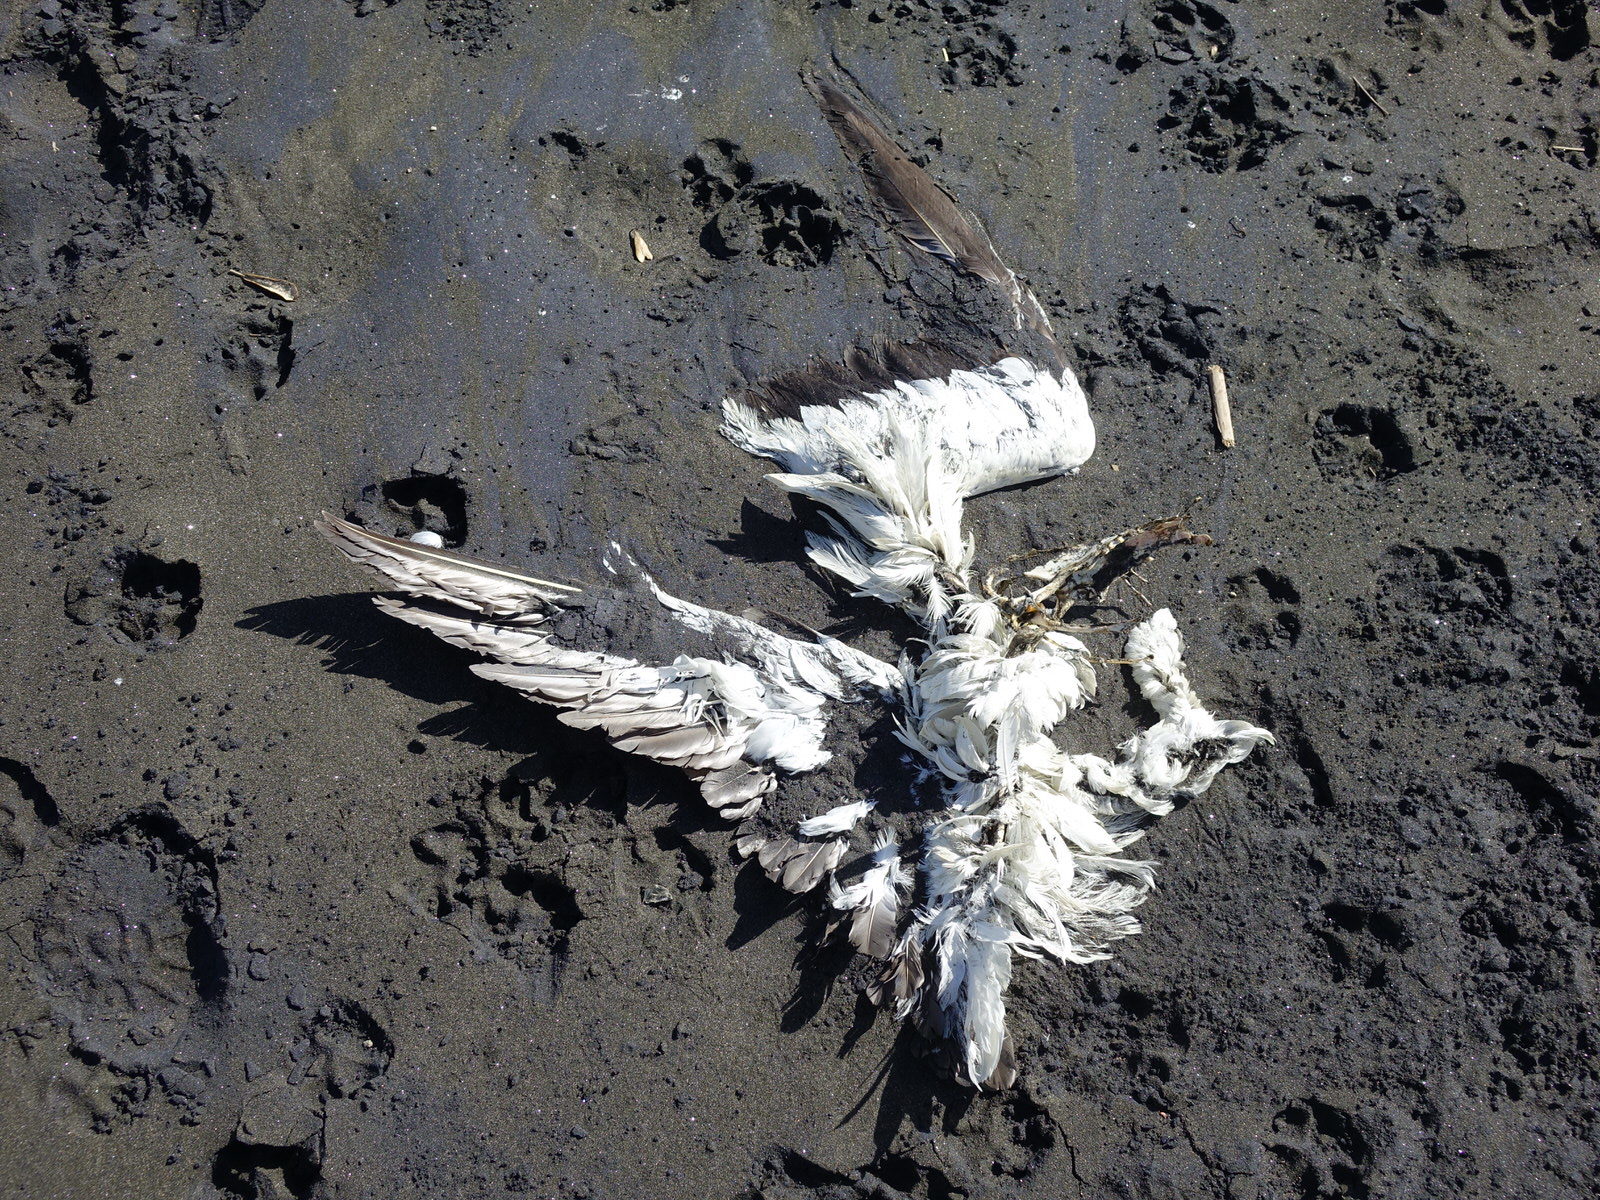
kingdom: Animalia
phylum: Chordata
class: Aves
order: Suliformes
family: Sulidae
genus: Morus
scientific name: Morus serrator
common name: Australasian gannet
